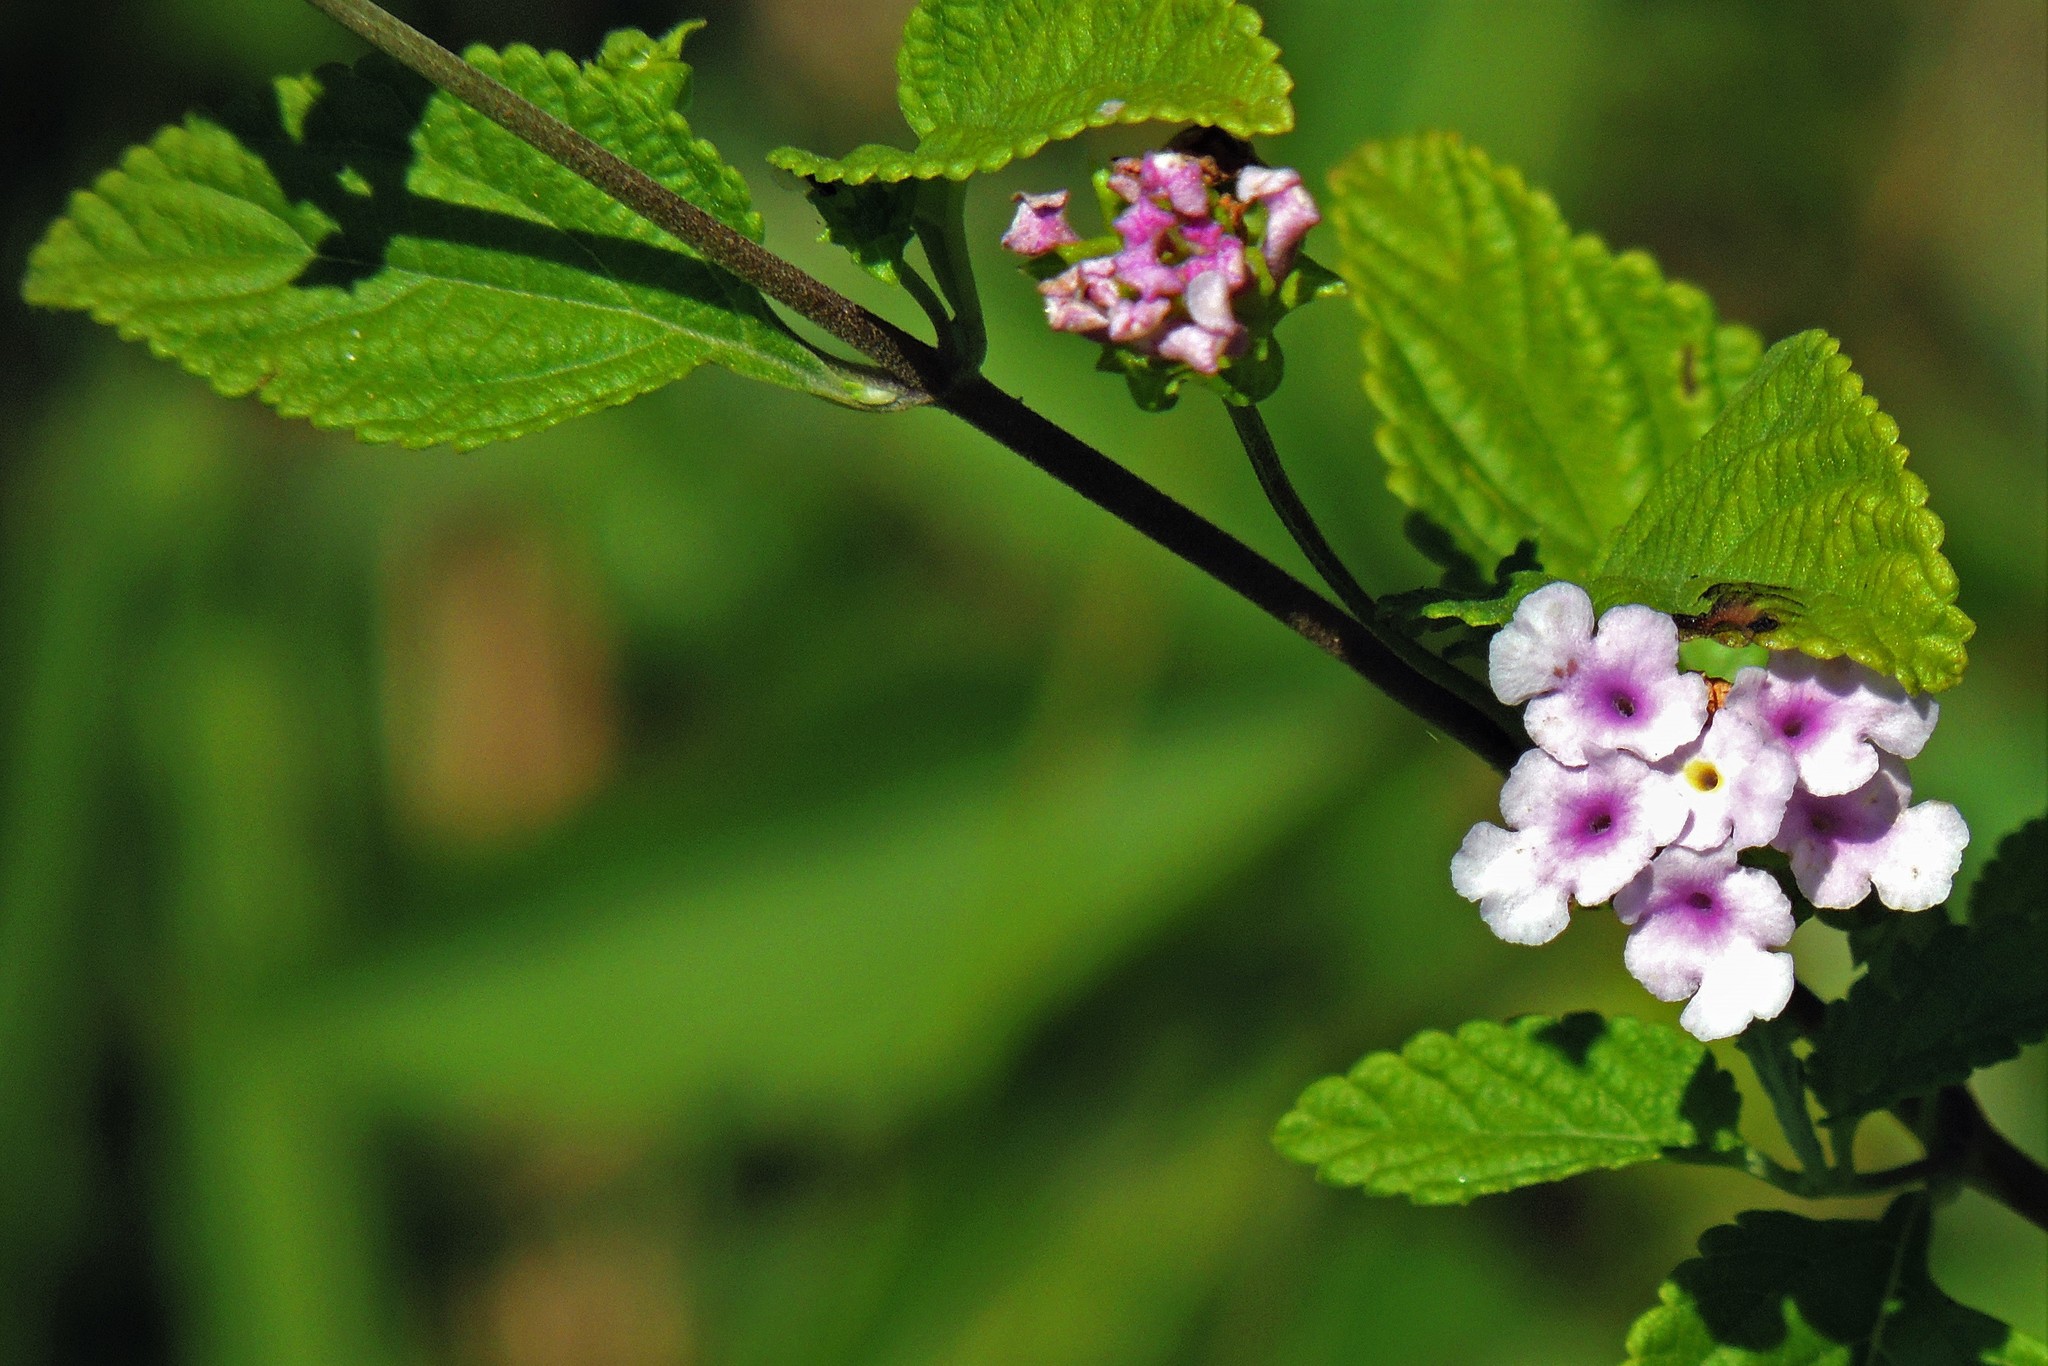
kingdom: Plantae
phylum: Tracheophyta
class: Magnoliopsida
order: Lamiales
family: Verbenaceae
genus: Lantana
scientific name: Lantana fucata
